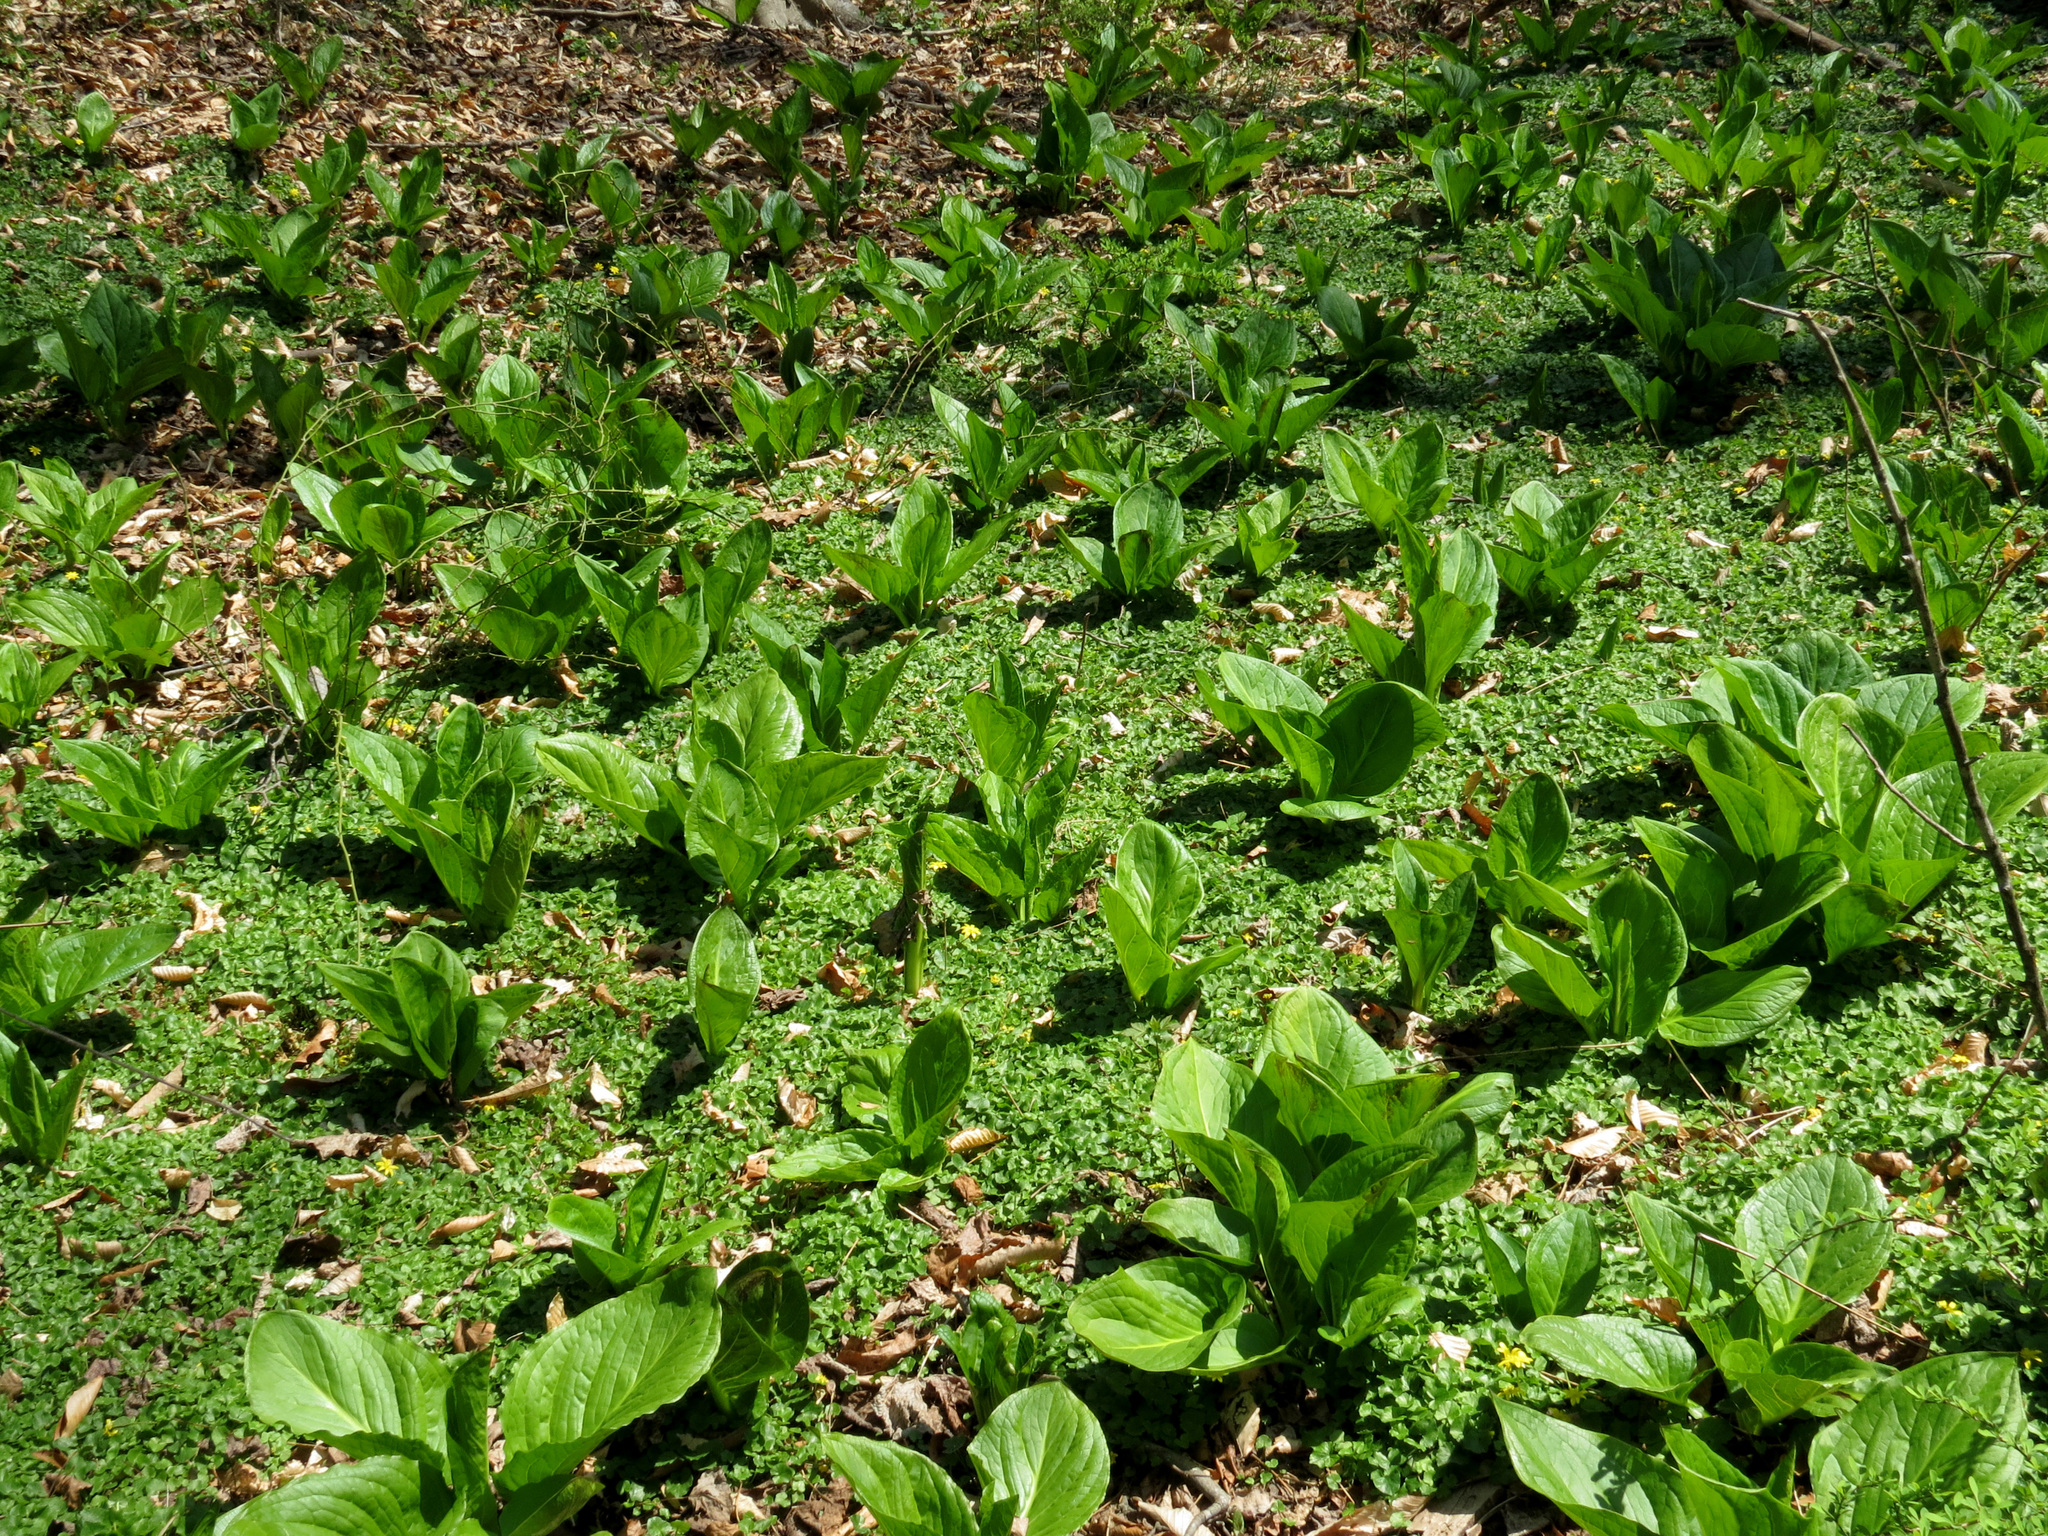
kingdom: Plantae
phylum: Tracheophyta
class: Liliopsida
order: Alismatales
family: Araceae
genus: Symplocarpus
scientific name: Symplocarpus foetidus
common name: Eastern skunk cabbage
